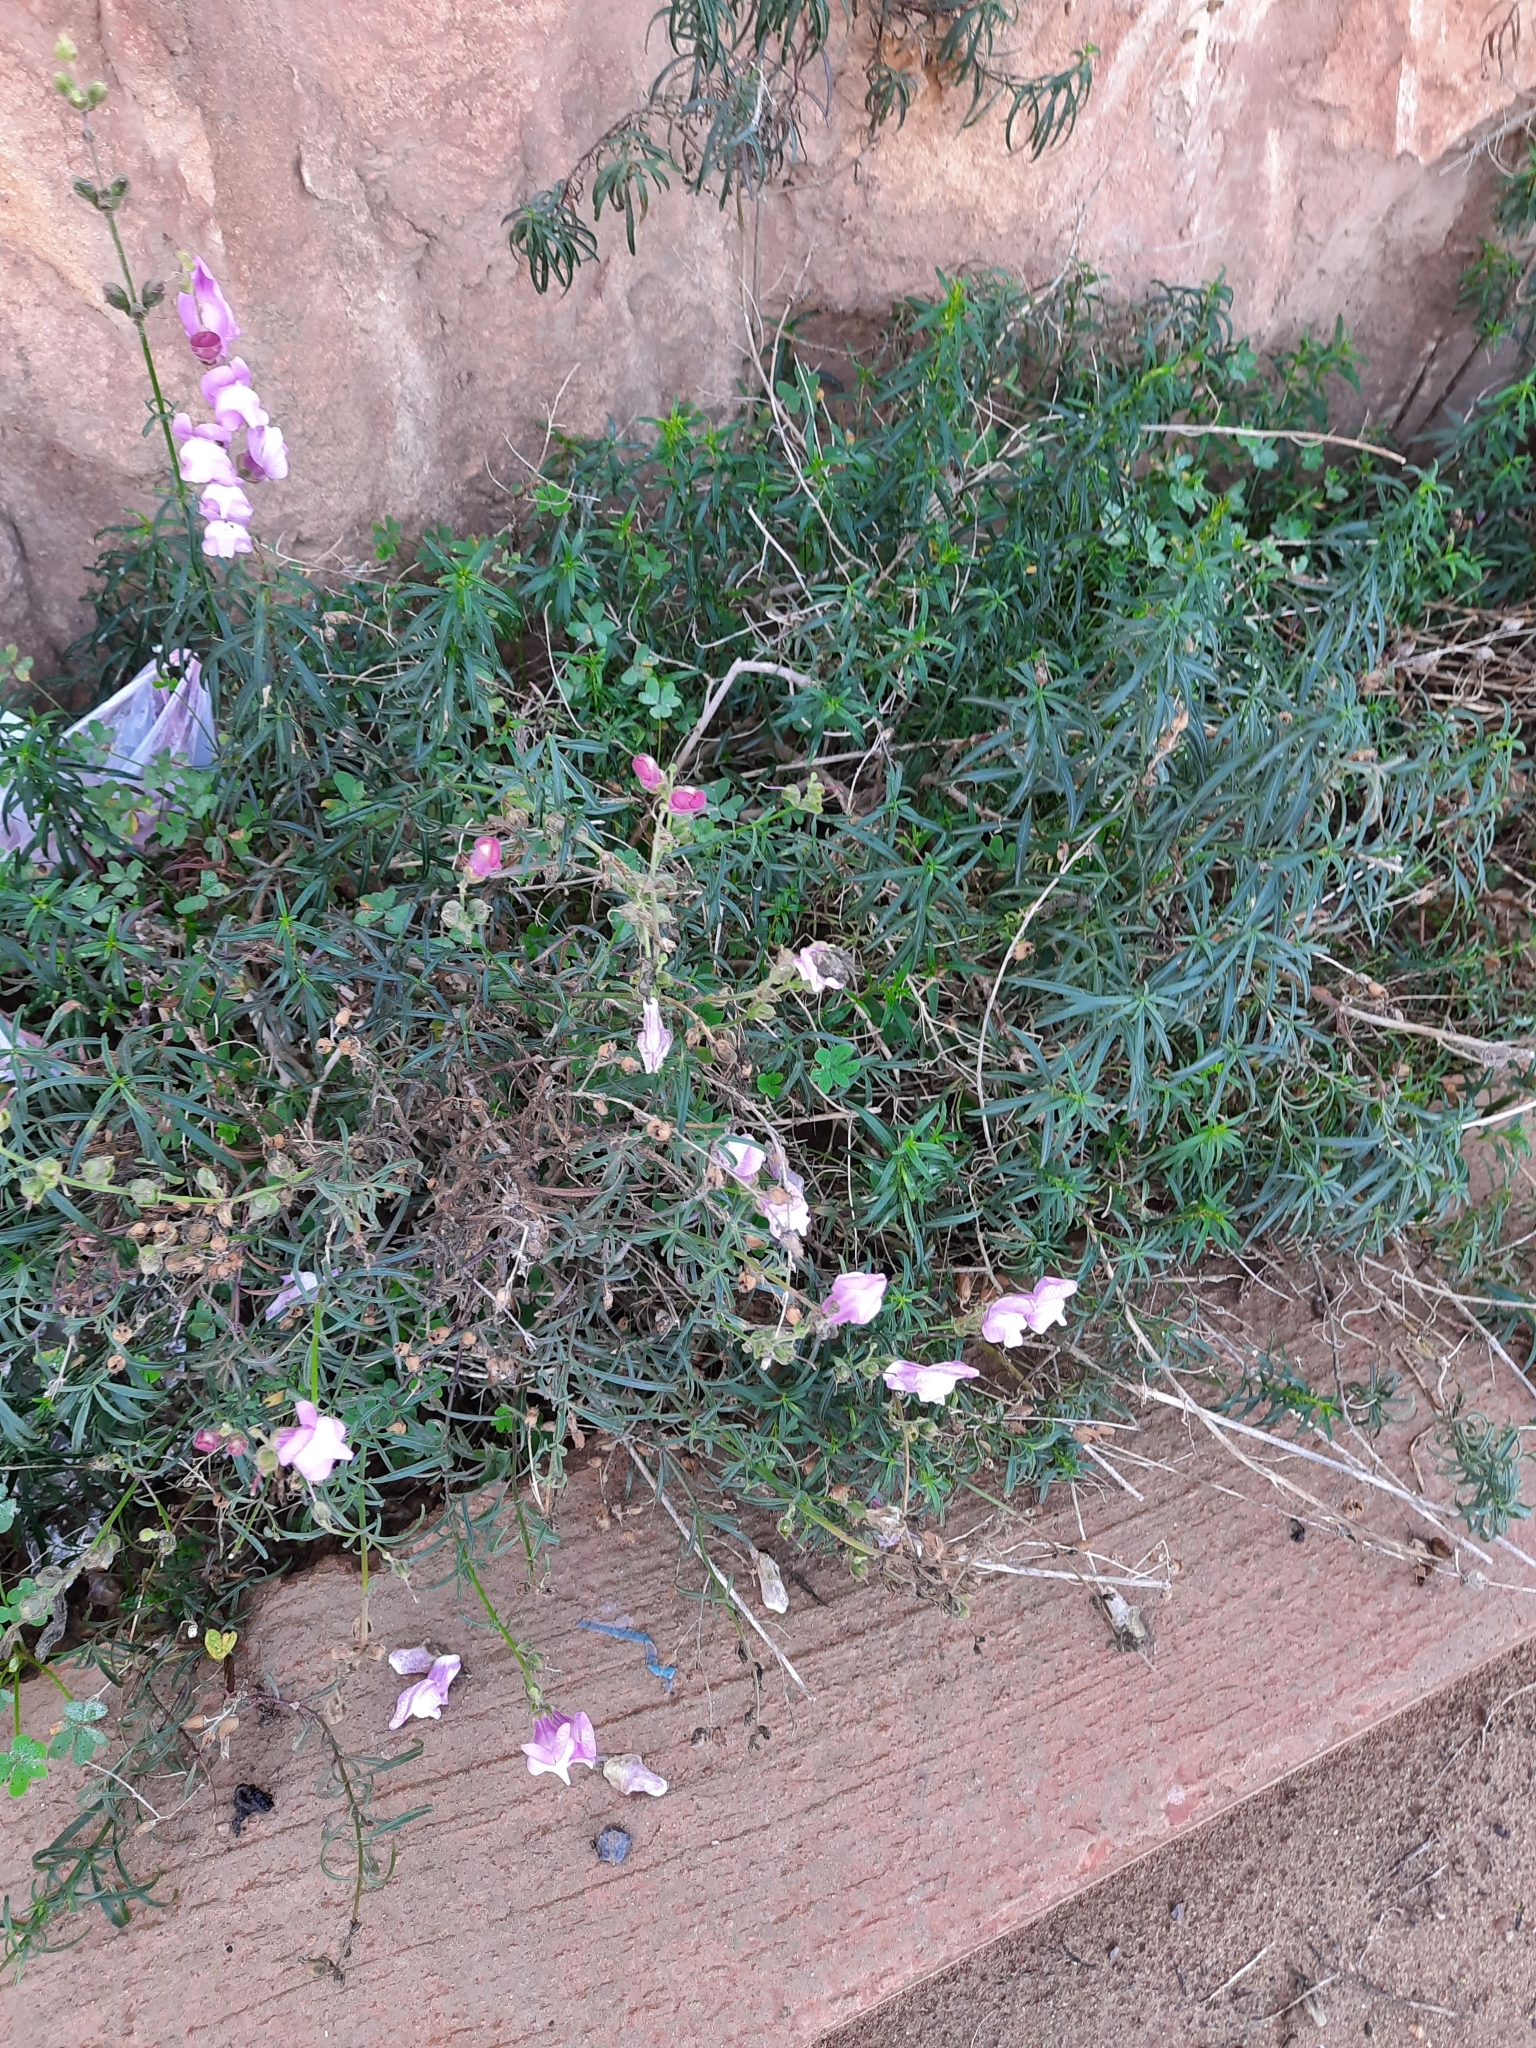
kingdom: Plantae
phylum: Tracheophyta
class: Magnoliopsida
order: Lamiales
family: Plantaginaceae
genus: Antirrhinum
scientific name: Antirrhinum tortuosum
